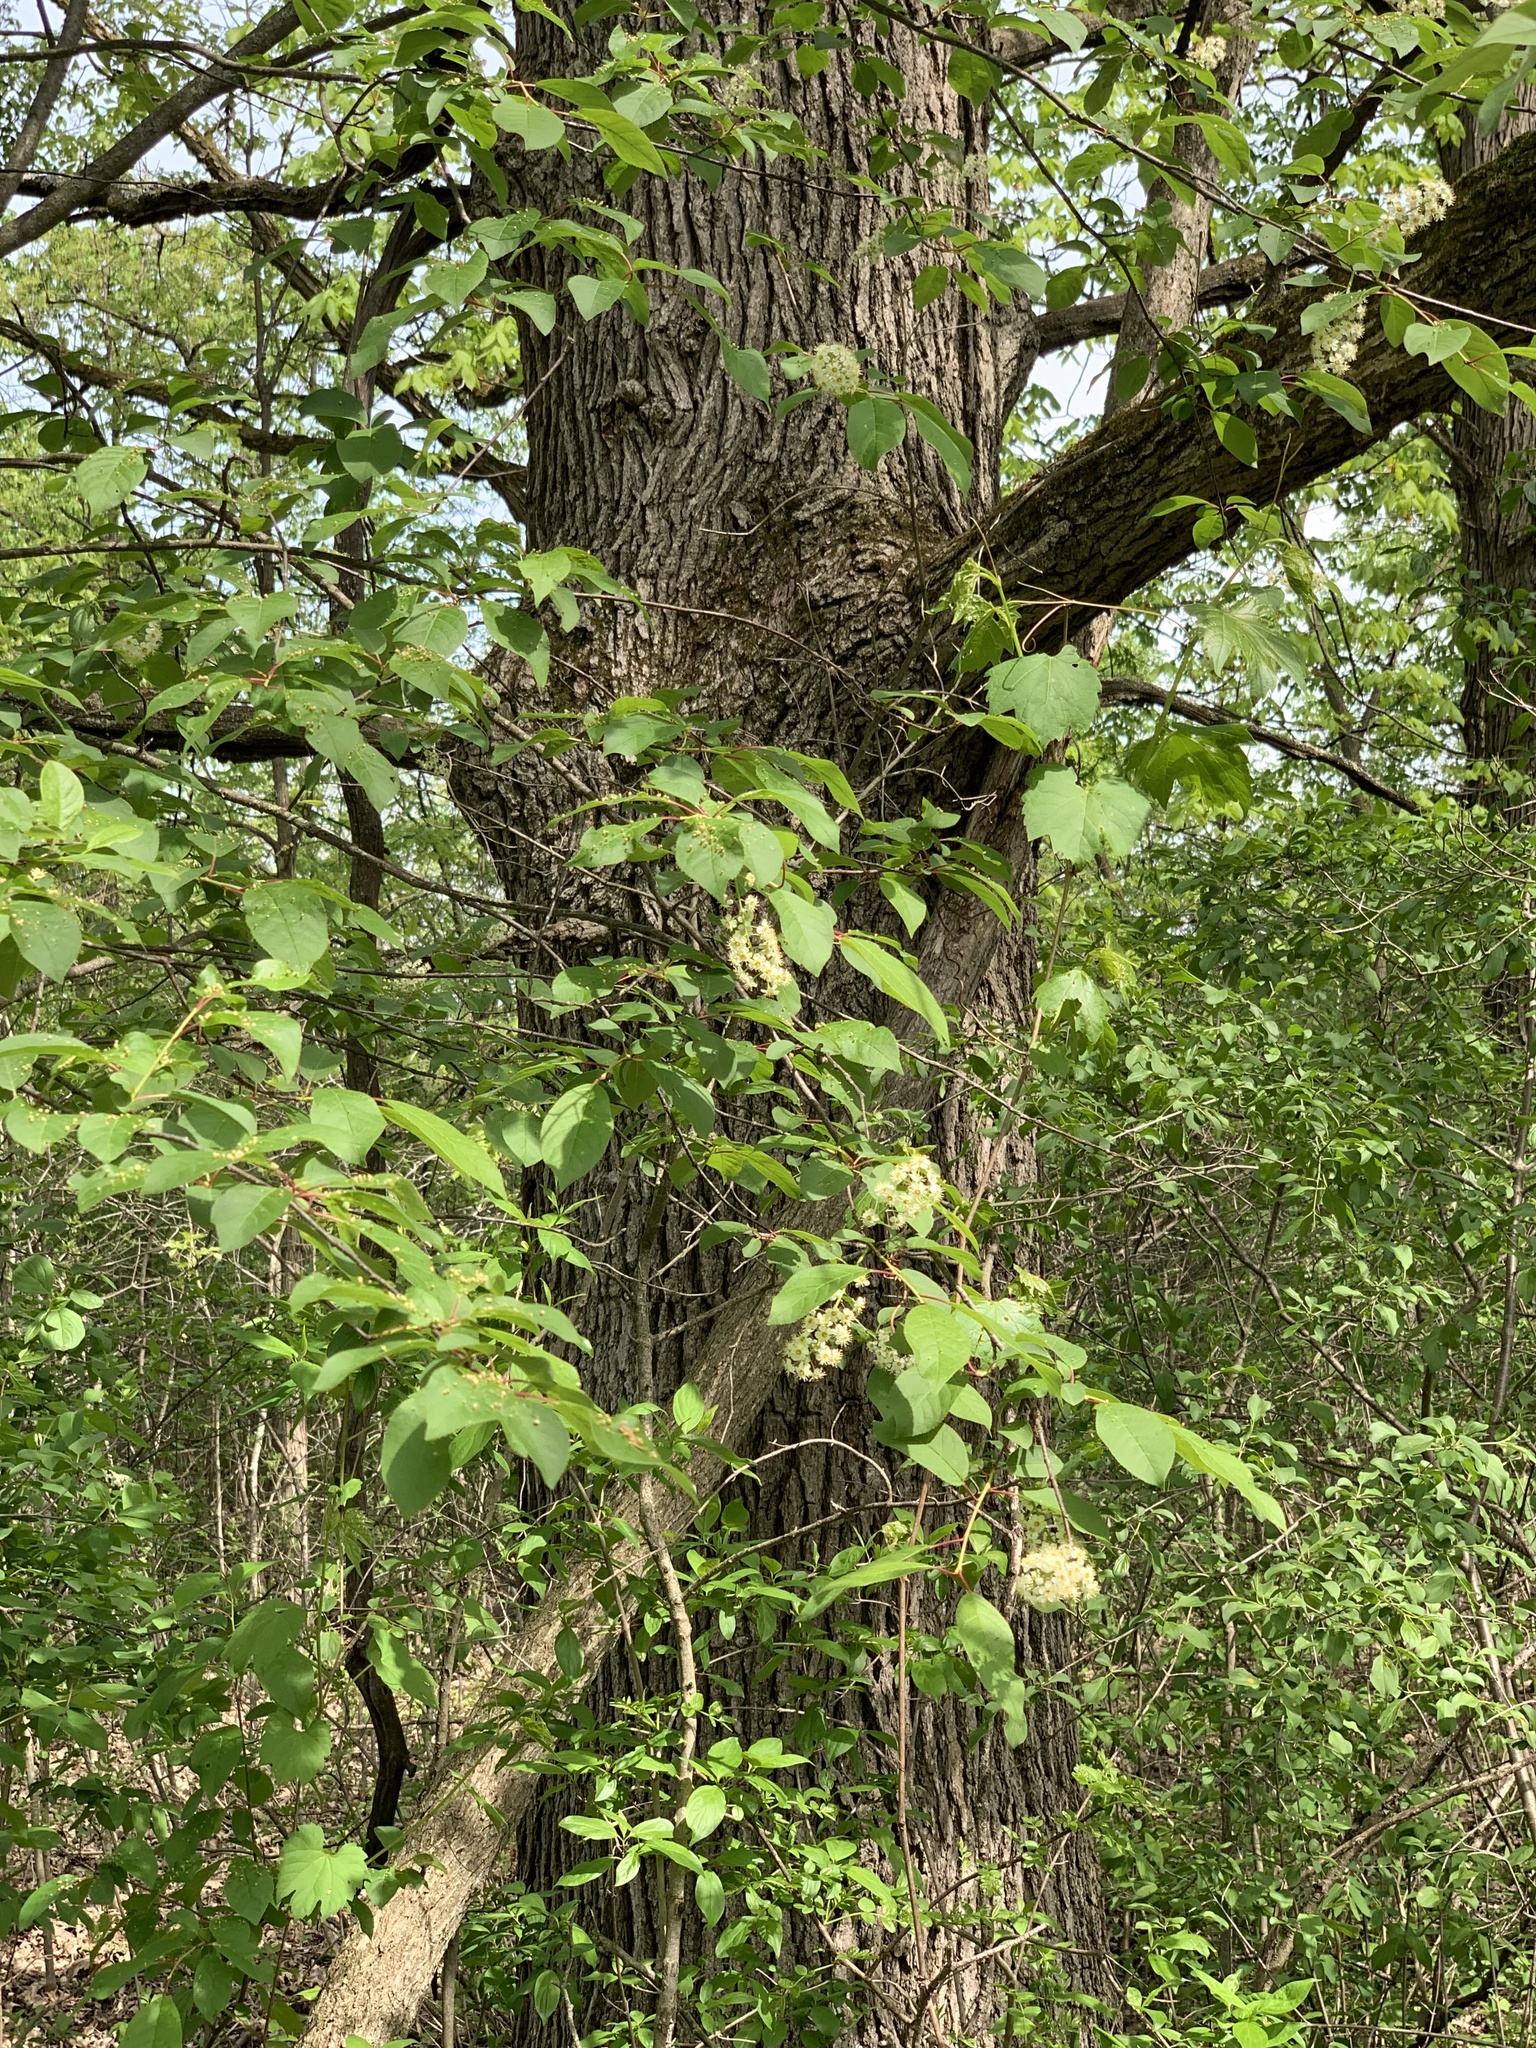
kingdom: Plantae
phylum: Tracheophyta
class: Magnoliopsida
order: Rosales
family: Rosaceae
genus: Prunus
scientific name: Prunus virginiana
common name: Chokecherry
